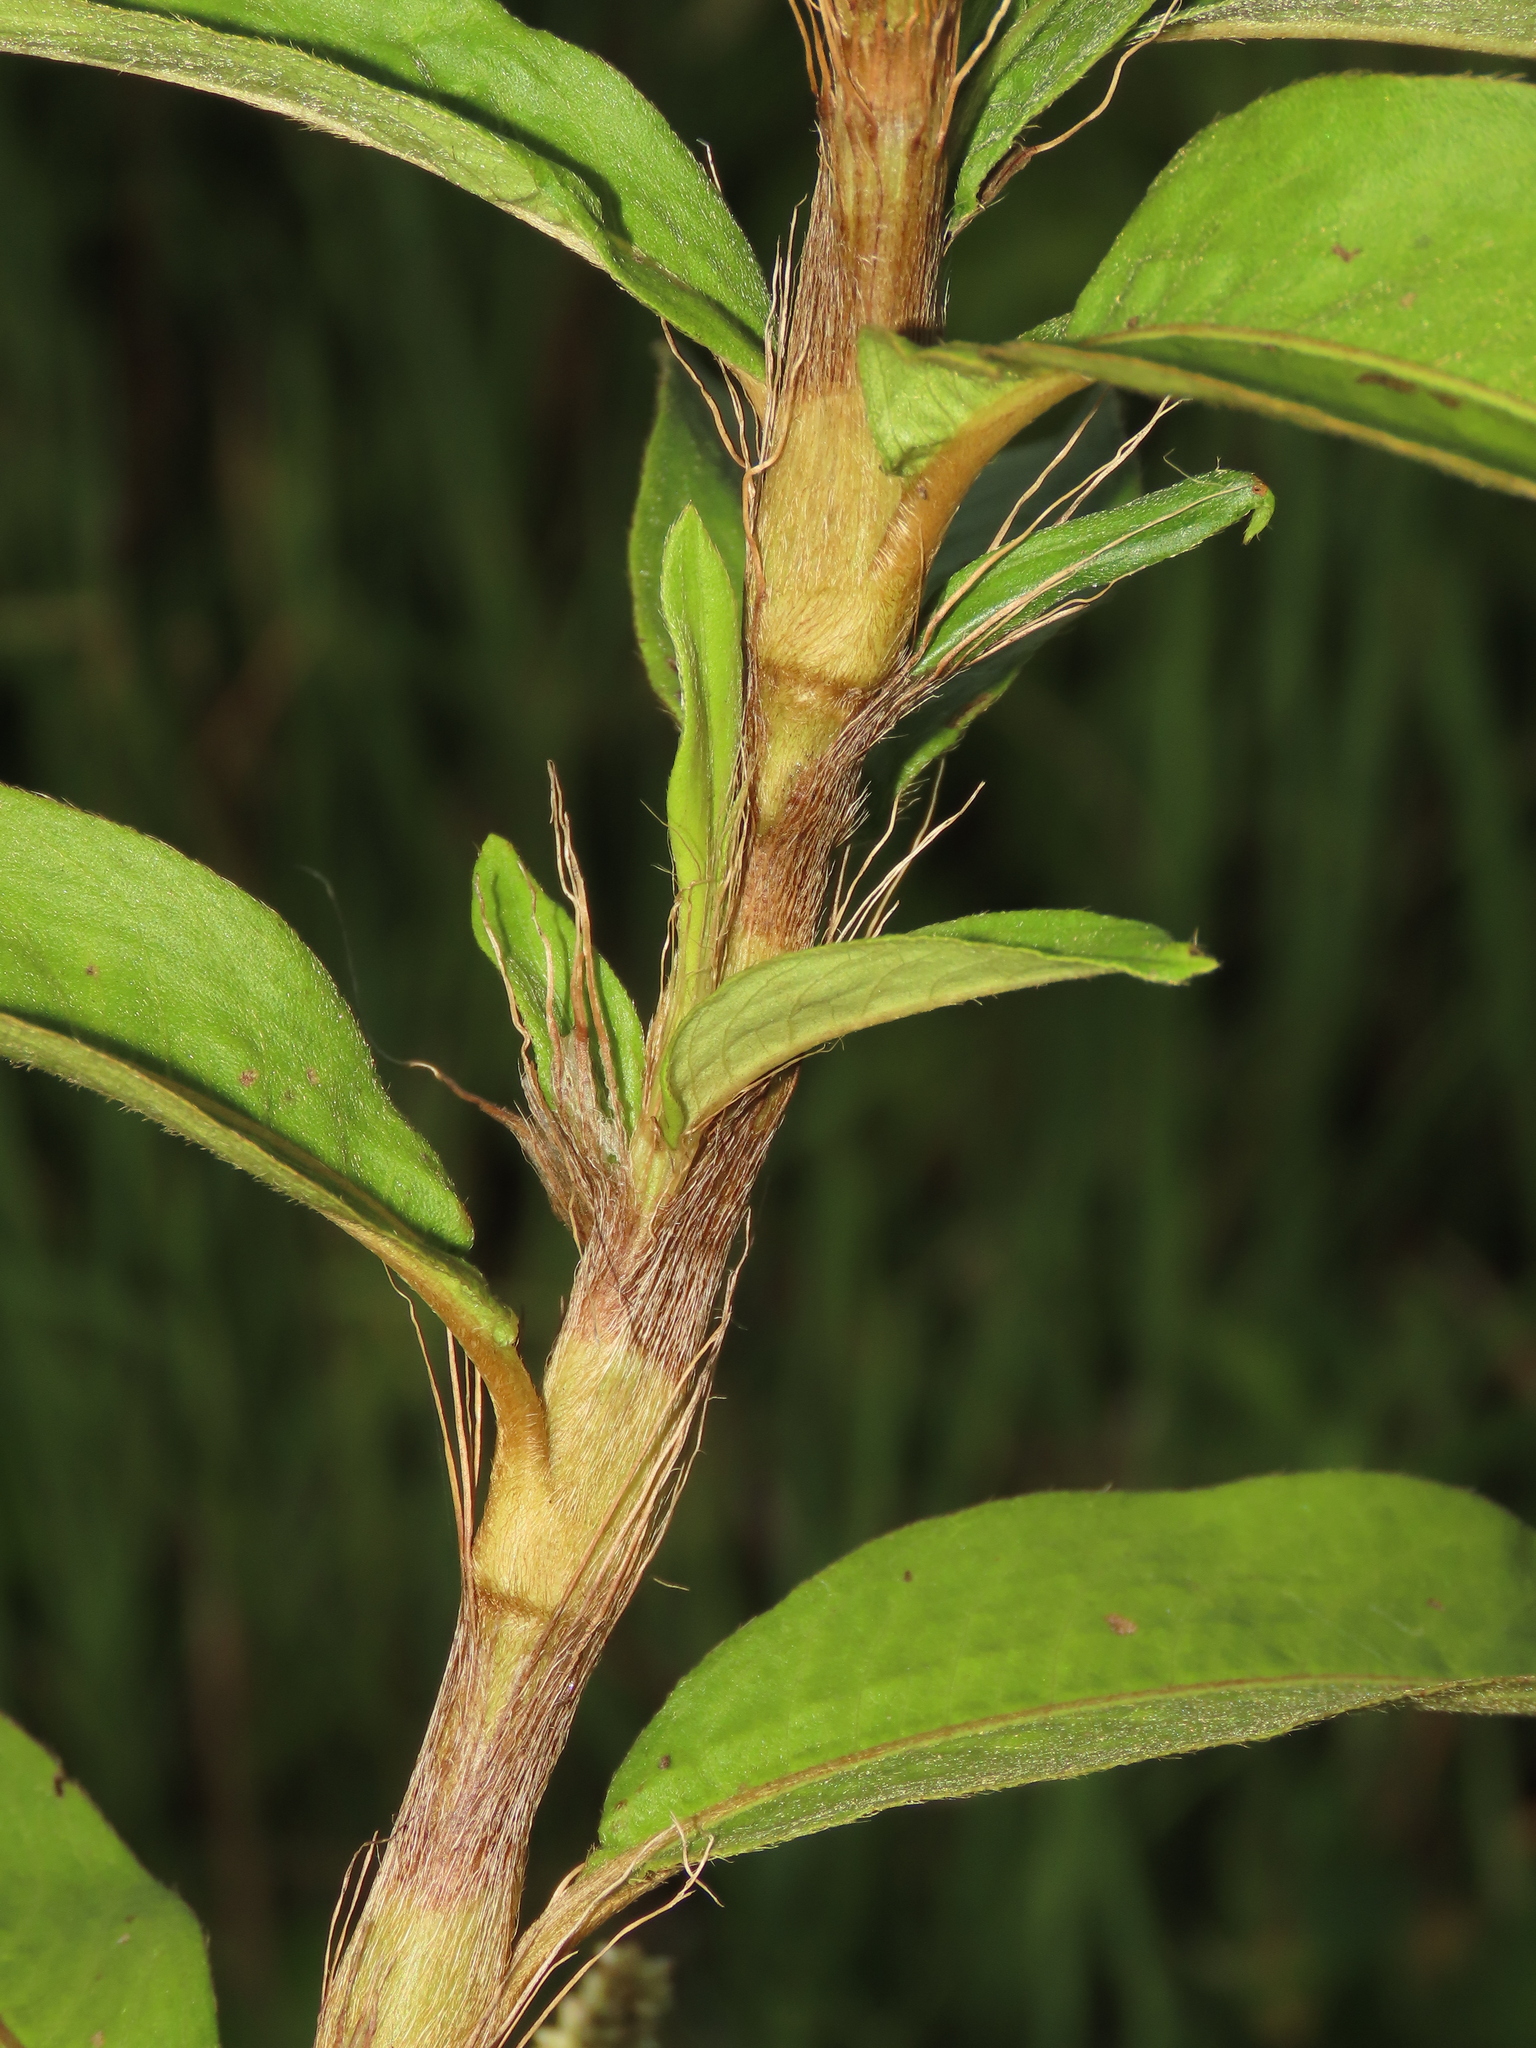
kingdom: Plantae
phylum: Tracheophyta
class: Magnoliopsida
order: Caryophyllales
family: Polygonaceae
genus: Persicaria
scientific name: Persicaria barbata
